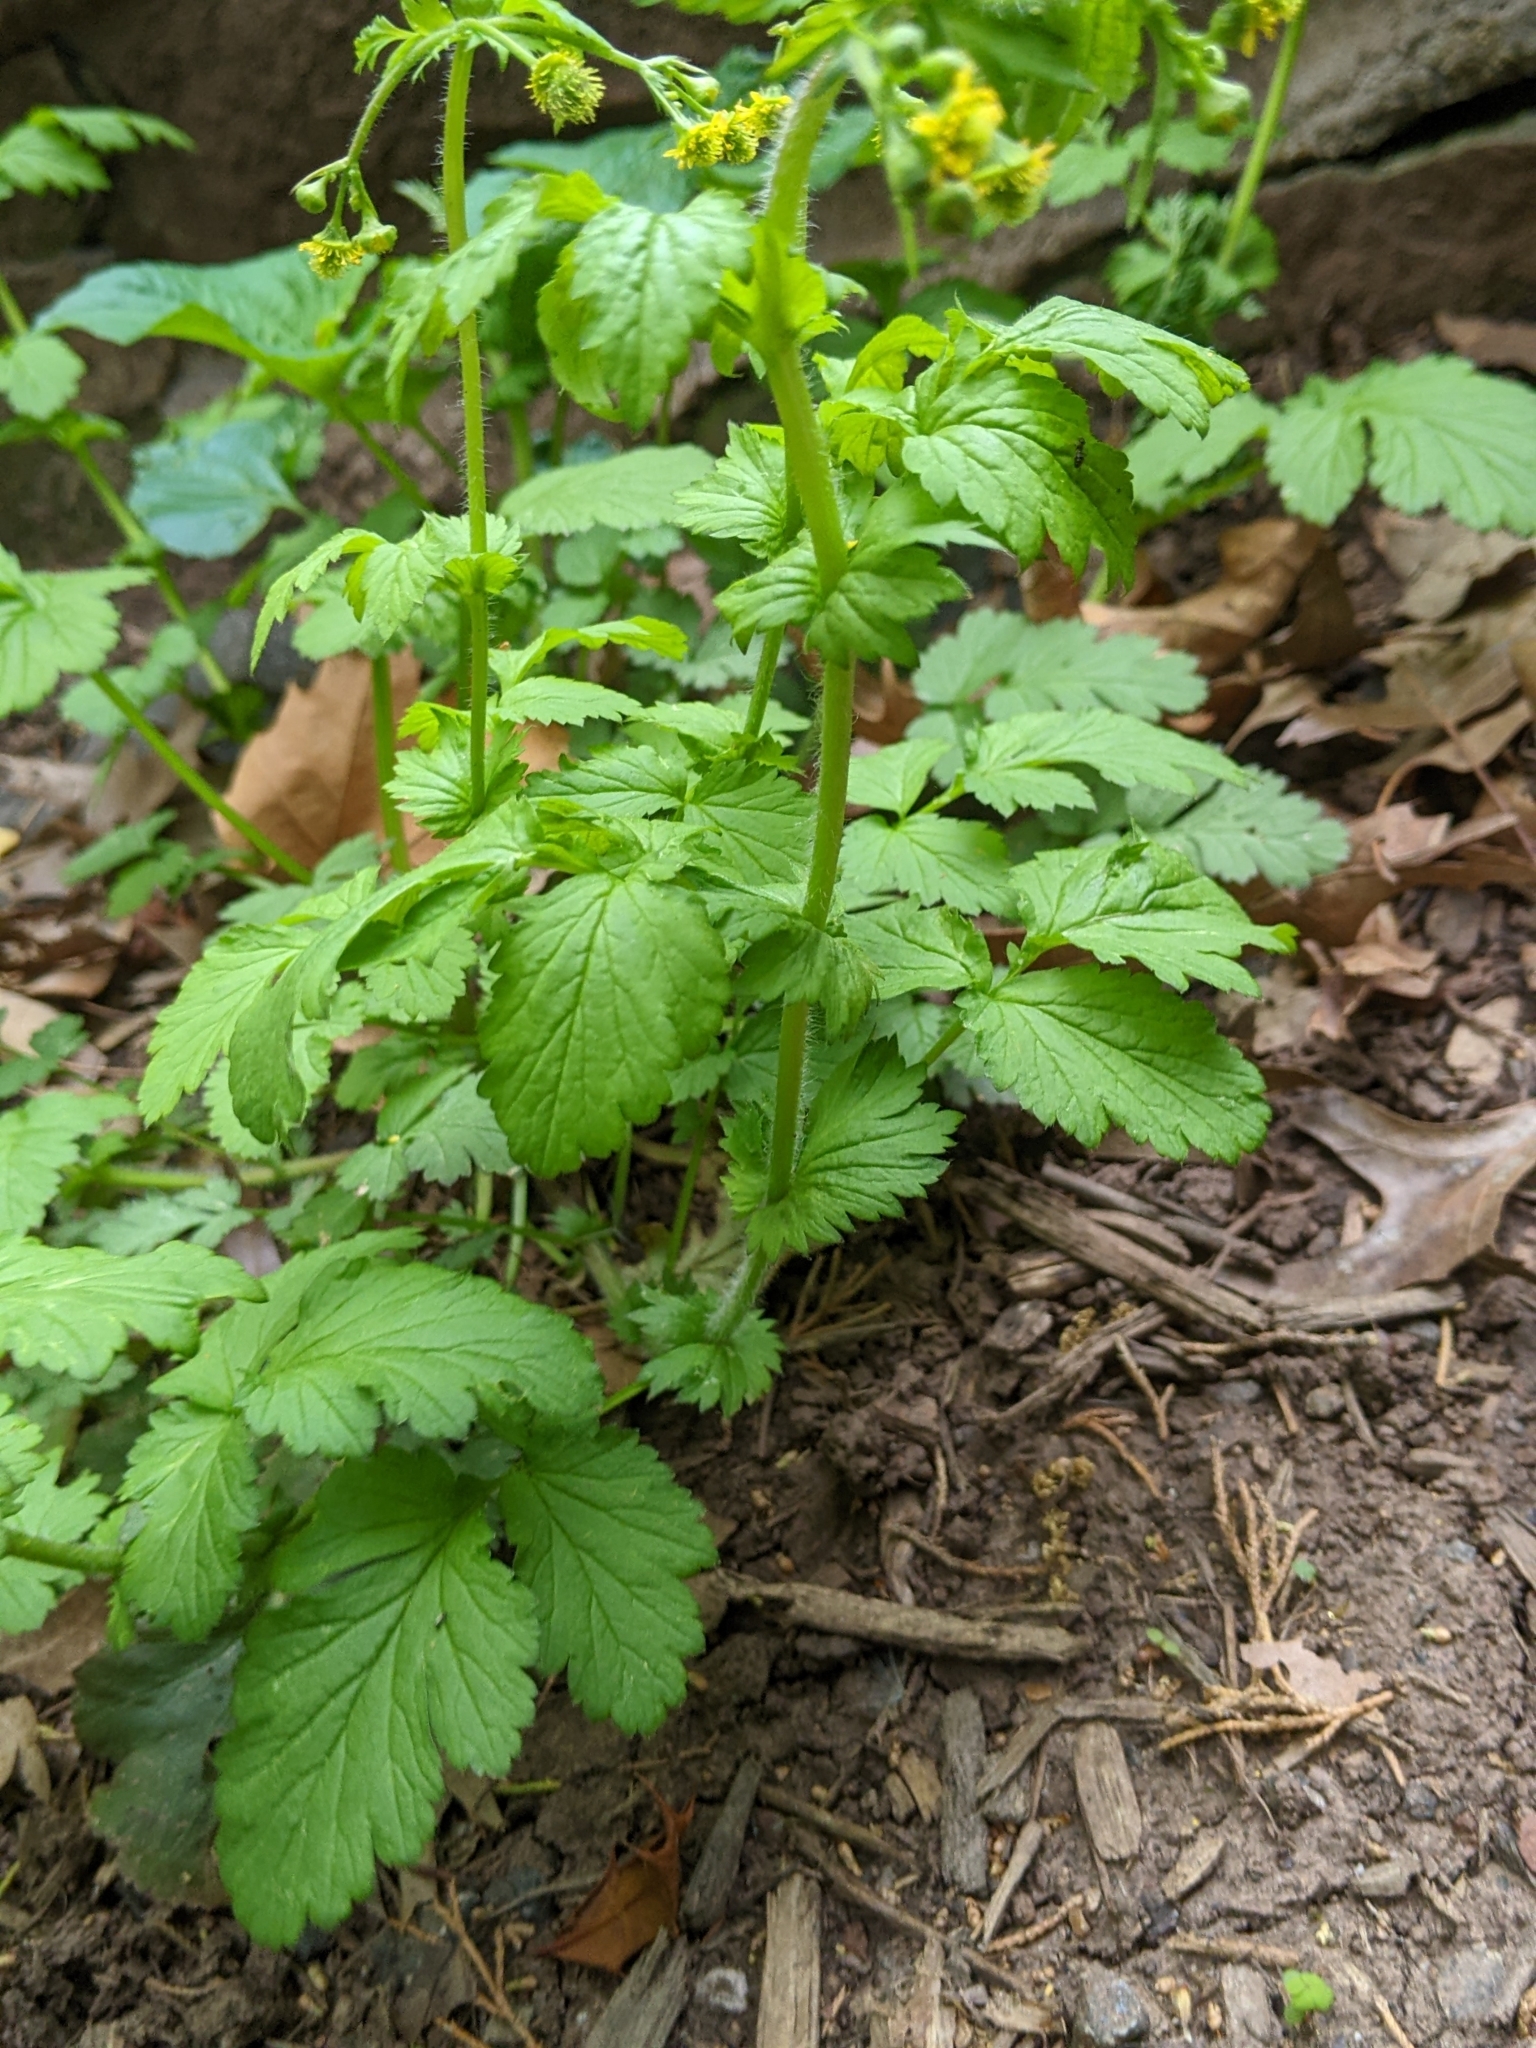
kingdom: Plantae
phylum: Tracheophyta
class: Magnoliopsida
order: Rosales
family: Rosaceae
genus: Geum
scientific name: Geum vernum
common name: Spring avens
